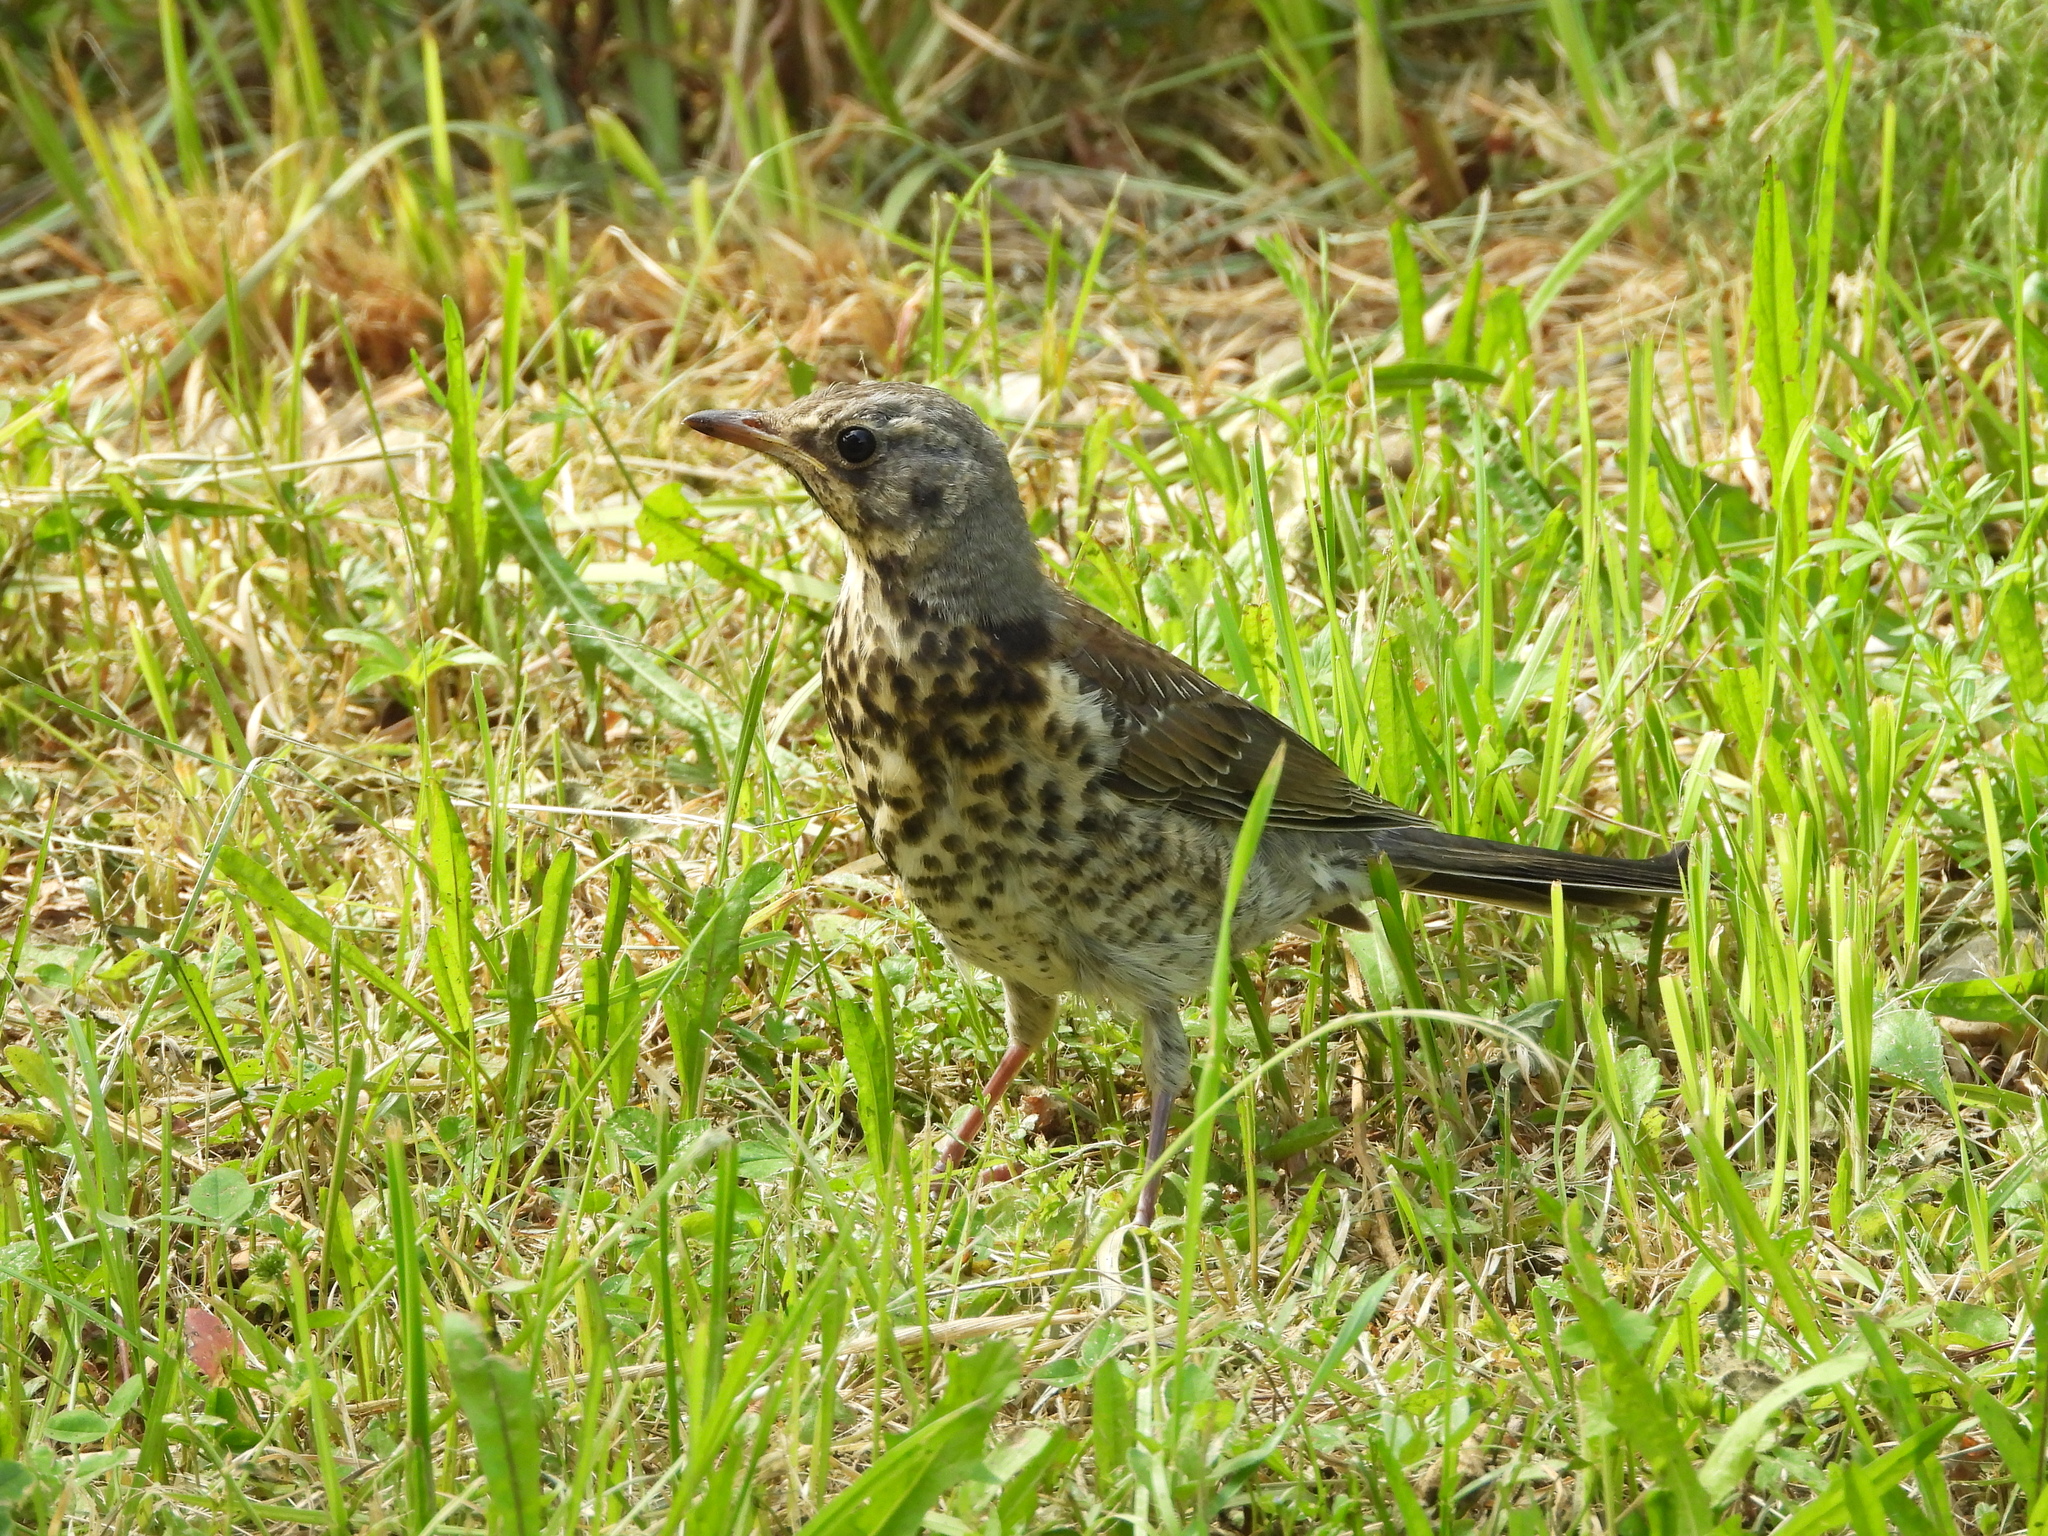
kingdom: Animalia
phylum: Chordata
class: Aves
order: Passeriformes
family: Turdidae
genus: Turdus
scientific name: Turdus pilaris
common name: Fieldfare
